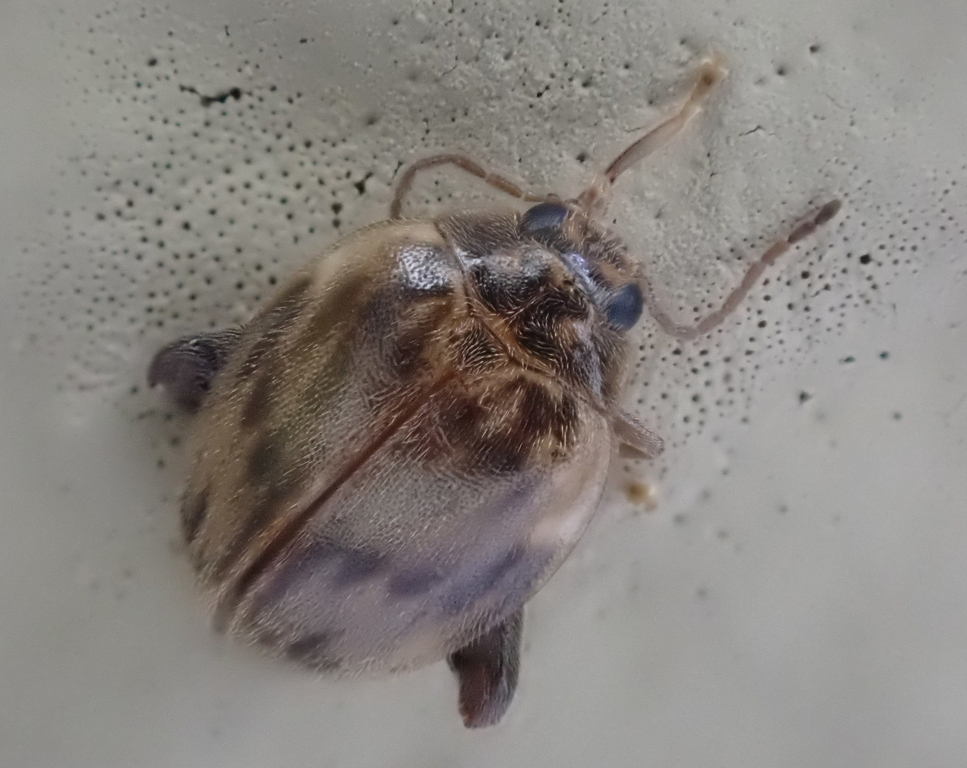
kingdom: Animalia
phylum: Arthropoda
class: Insecta
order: Coleoptera
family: Scirtidae
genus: Ora
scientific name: Ora texana
